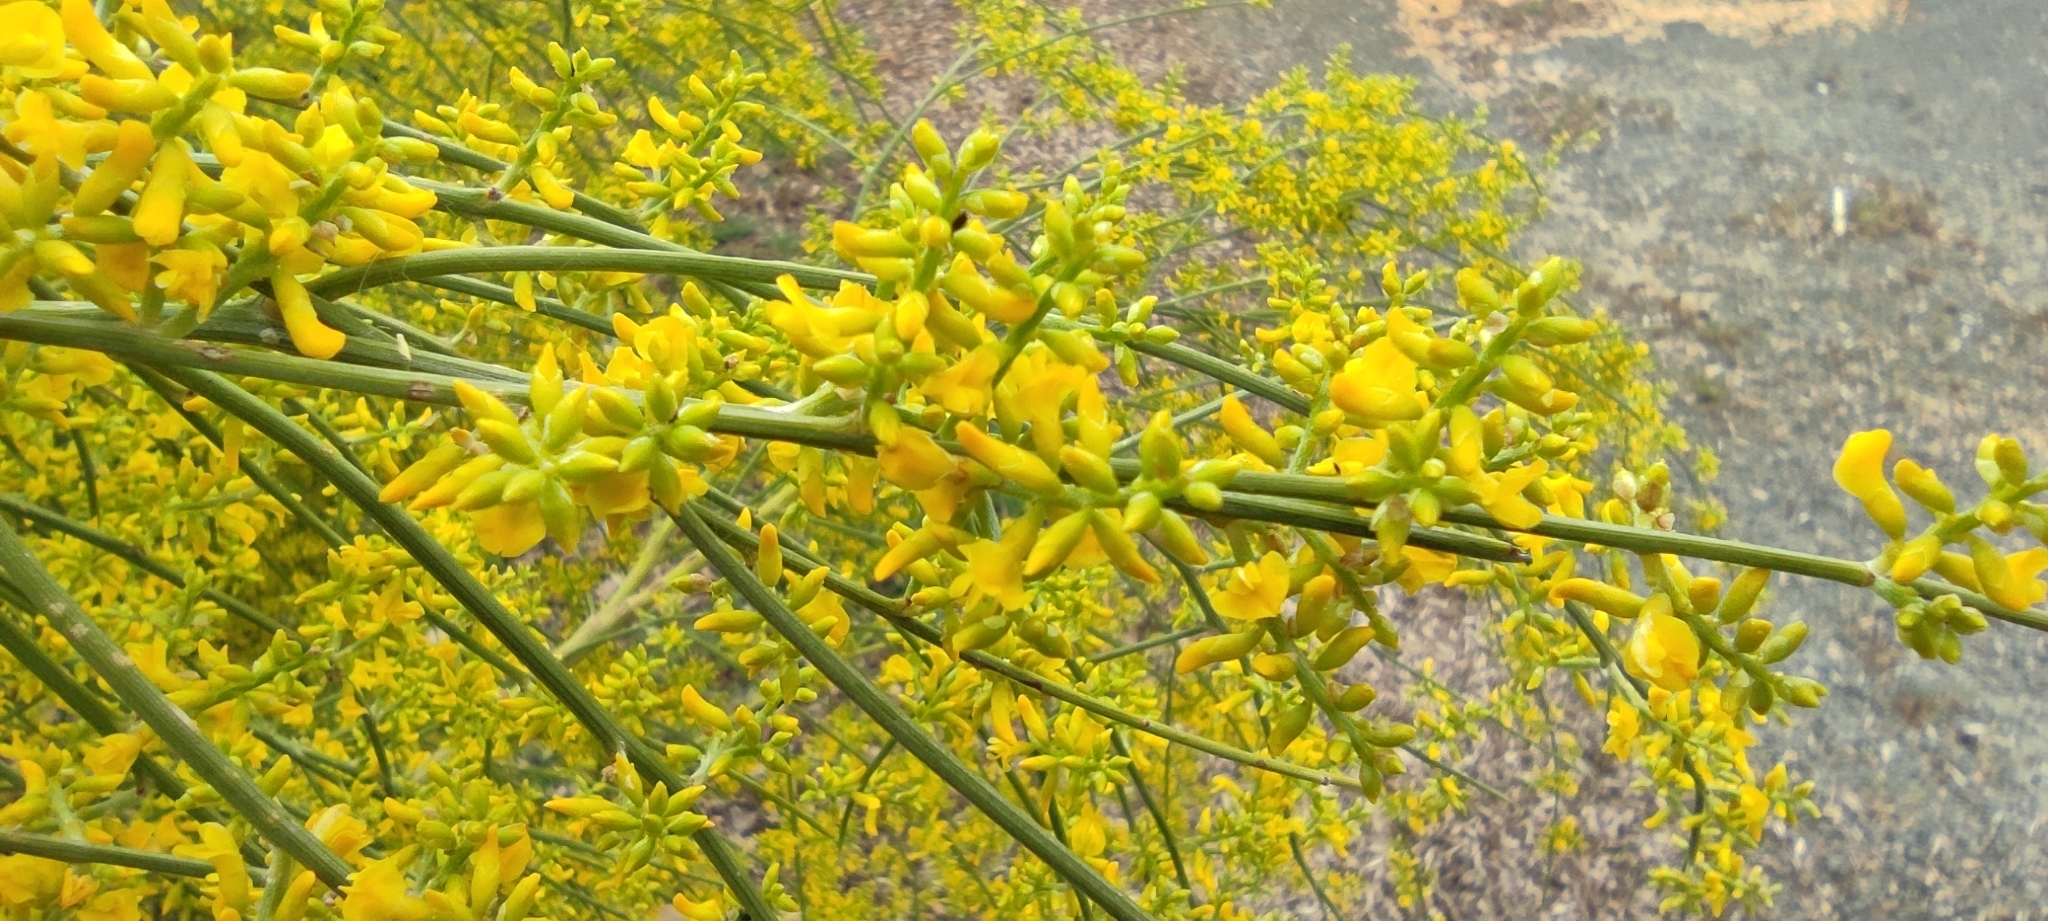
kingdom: Plantae
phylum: Tracheophyta
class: Magnoliopsida
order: Fabales
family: Fabaceae
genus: Retama
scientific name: Retama sphaerocarpa
